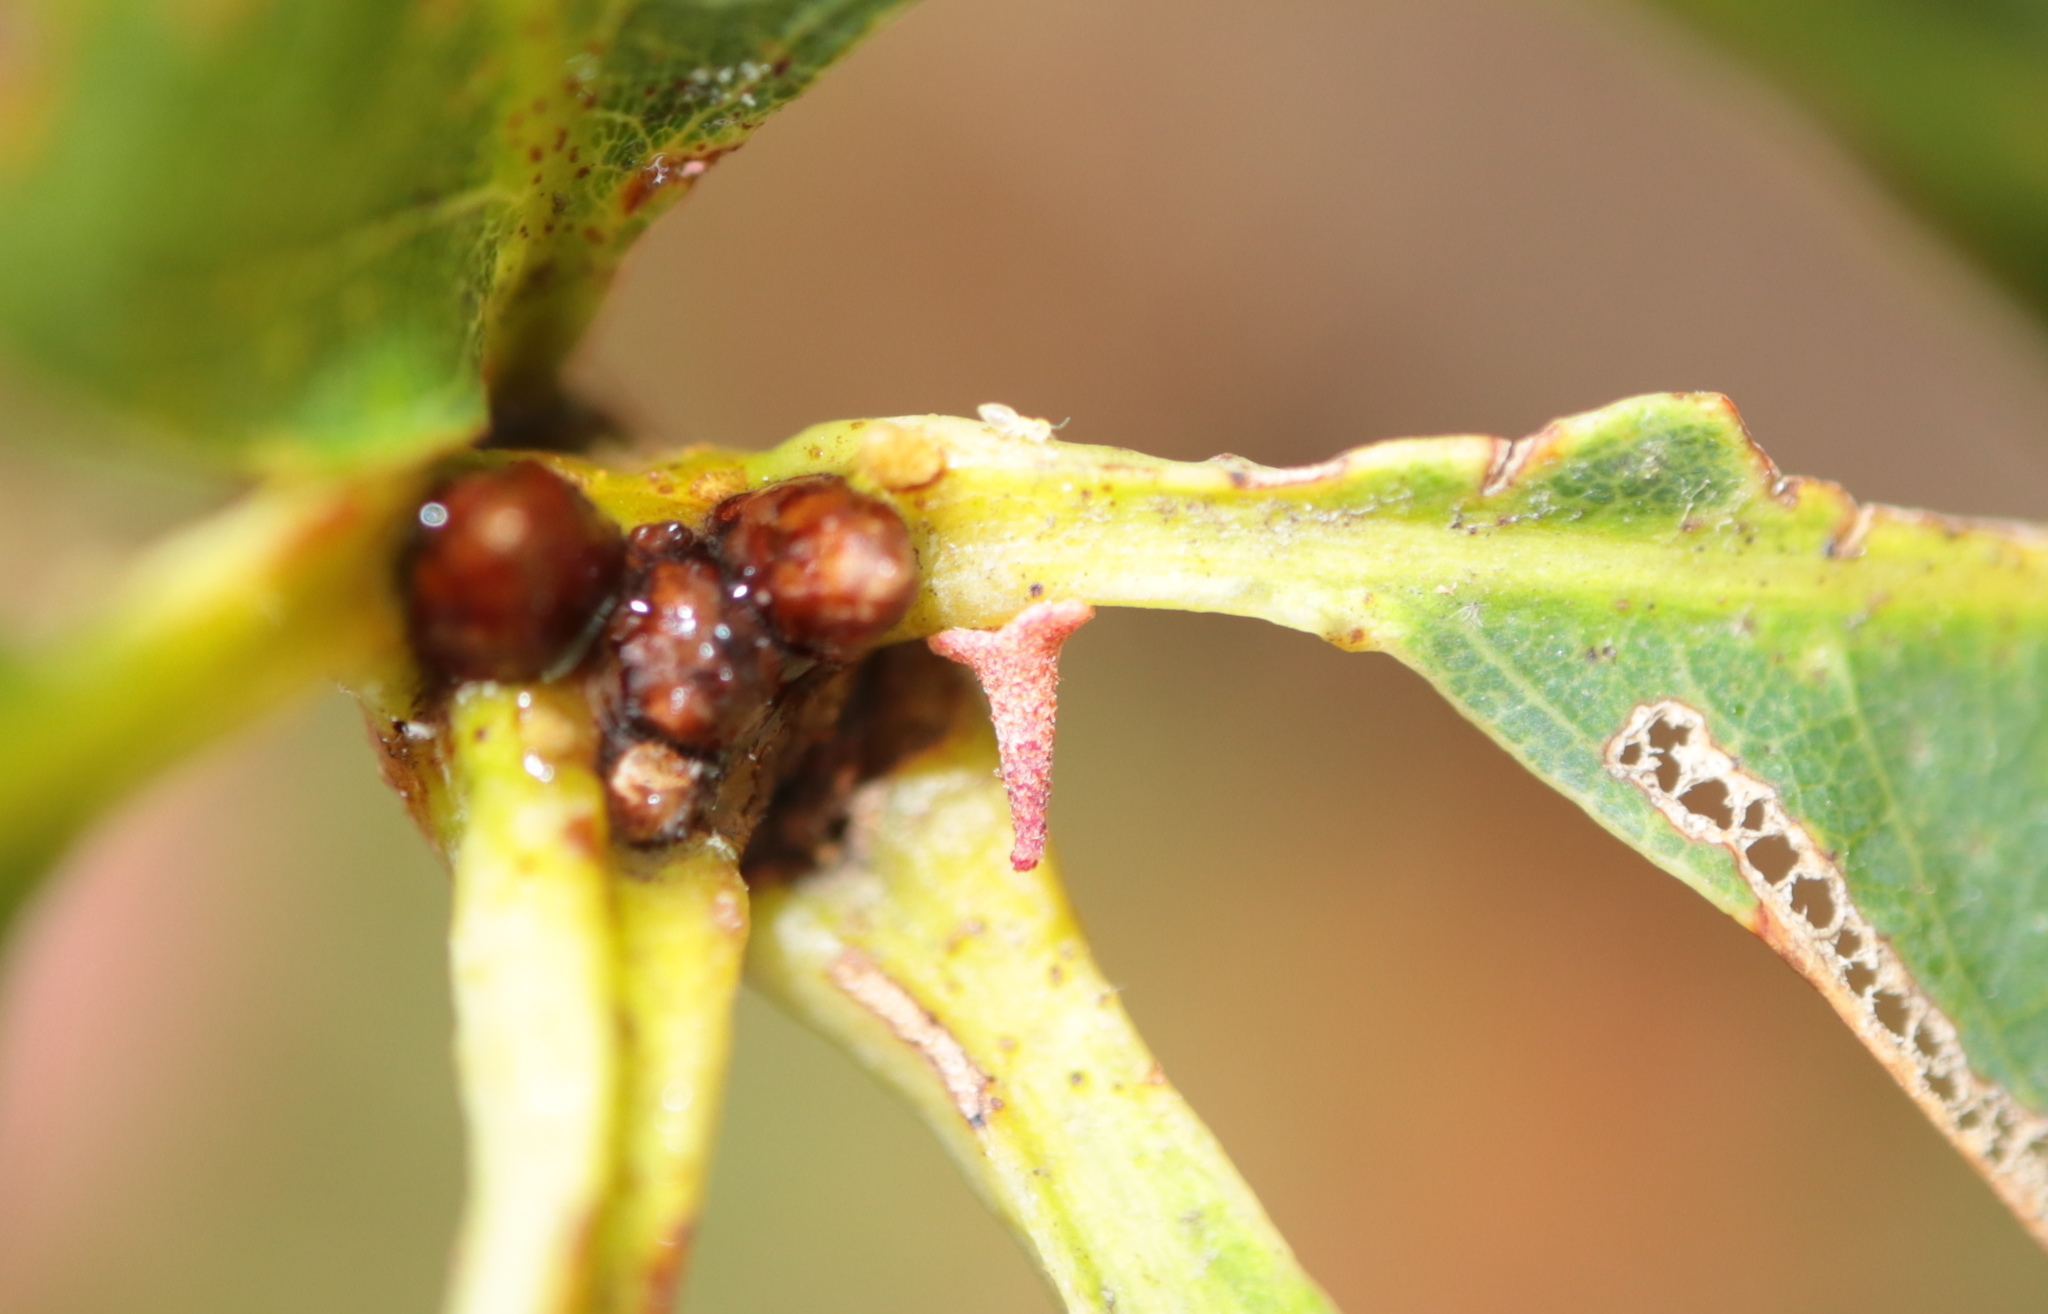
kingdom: Animalia
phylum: Arthropoda
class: Insecta
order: Hymenoptera
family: Cynipidae
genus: Zopheroteras
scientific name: Zopheroteras
